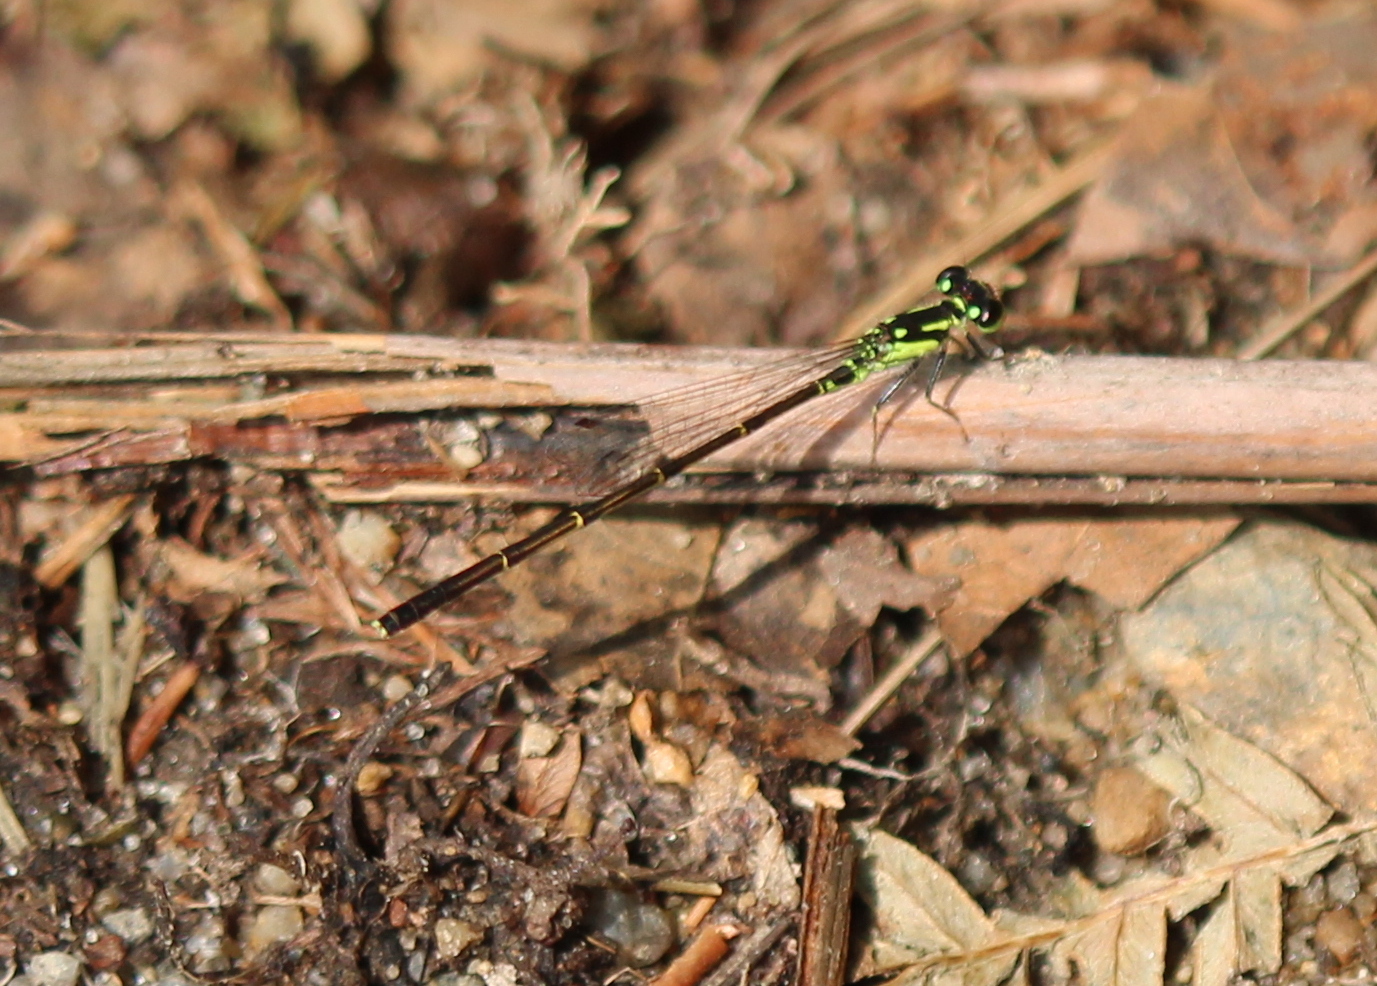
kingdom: Animalia
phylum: Arthropoda
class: Insecta
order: Odonata
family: Coenagrionidae
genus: Ischnura
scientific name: Ischnura posita
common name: Fragile forktail
